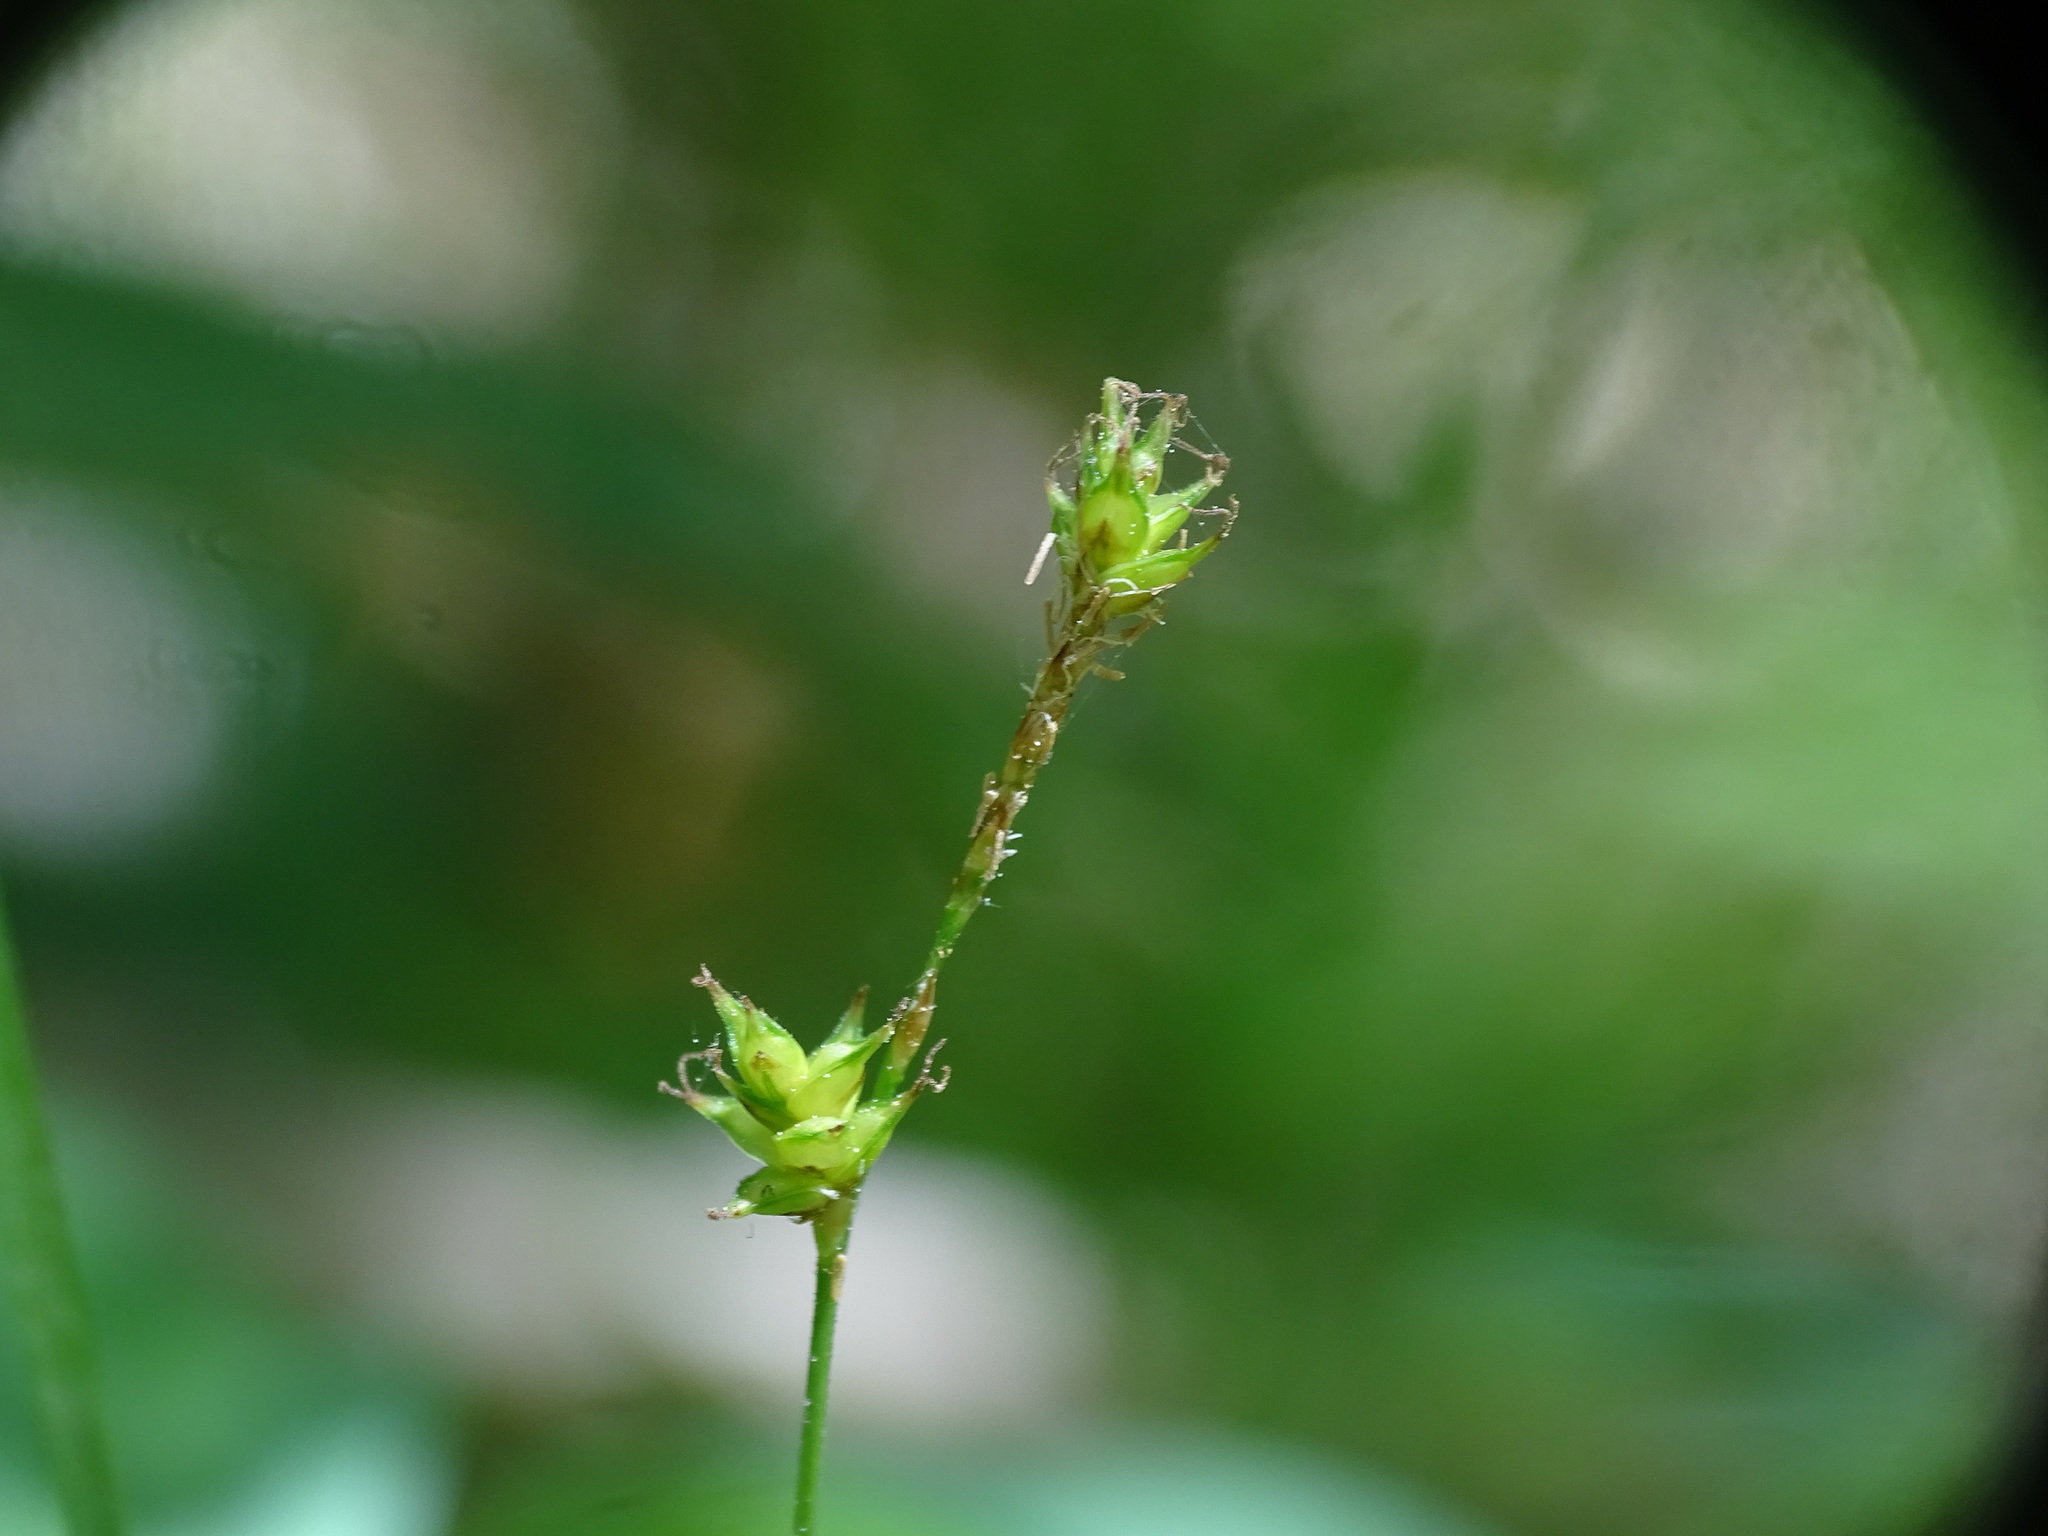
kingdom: Plantae
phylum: Tracheophyta
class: Liliopsida
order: Poales
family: Cyperaceae
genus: Carex
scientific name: Carex interior
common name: Inland sedge
